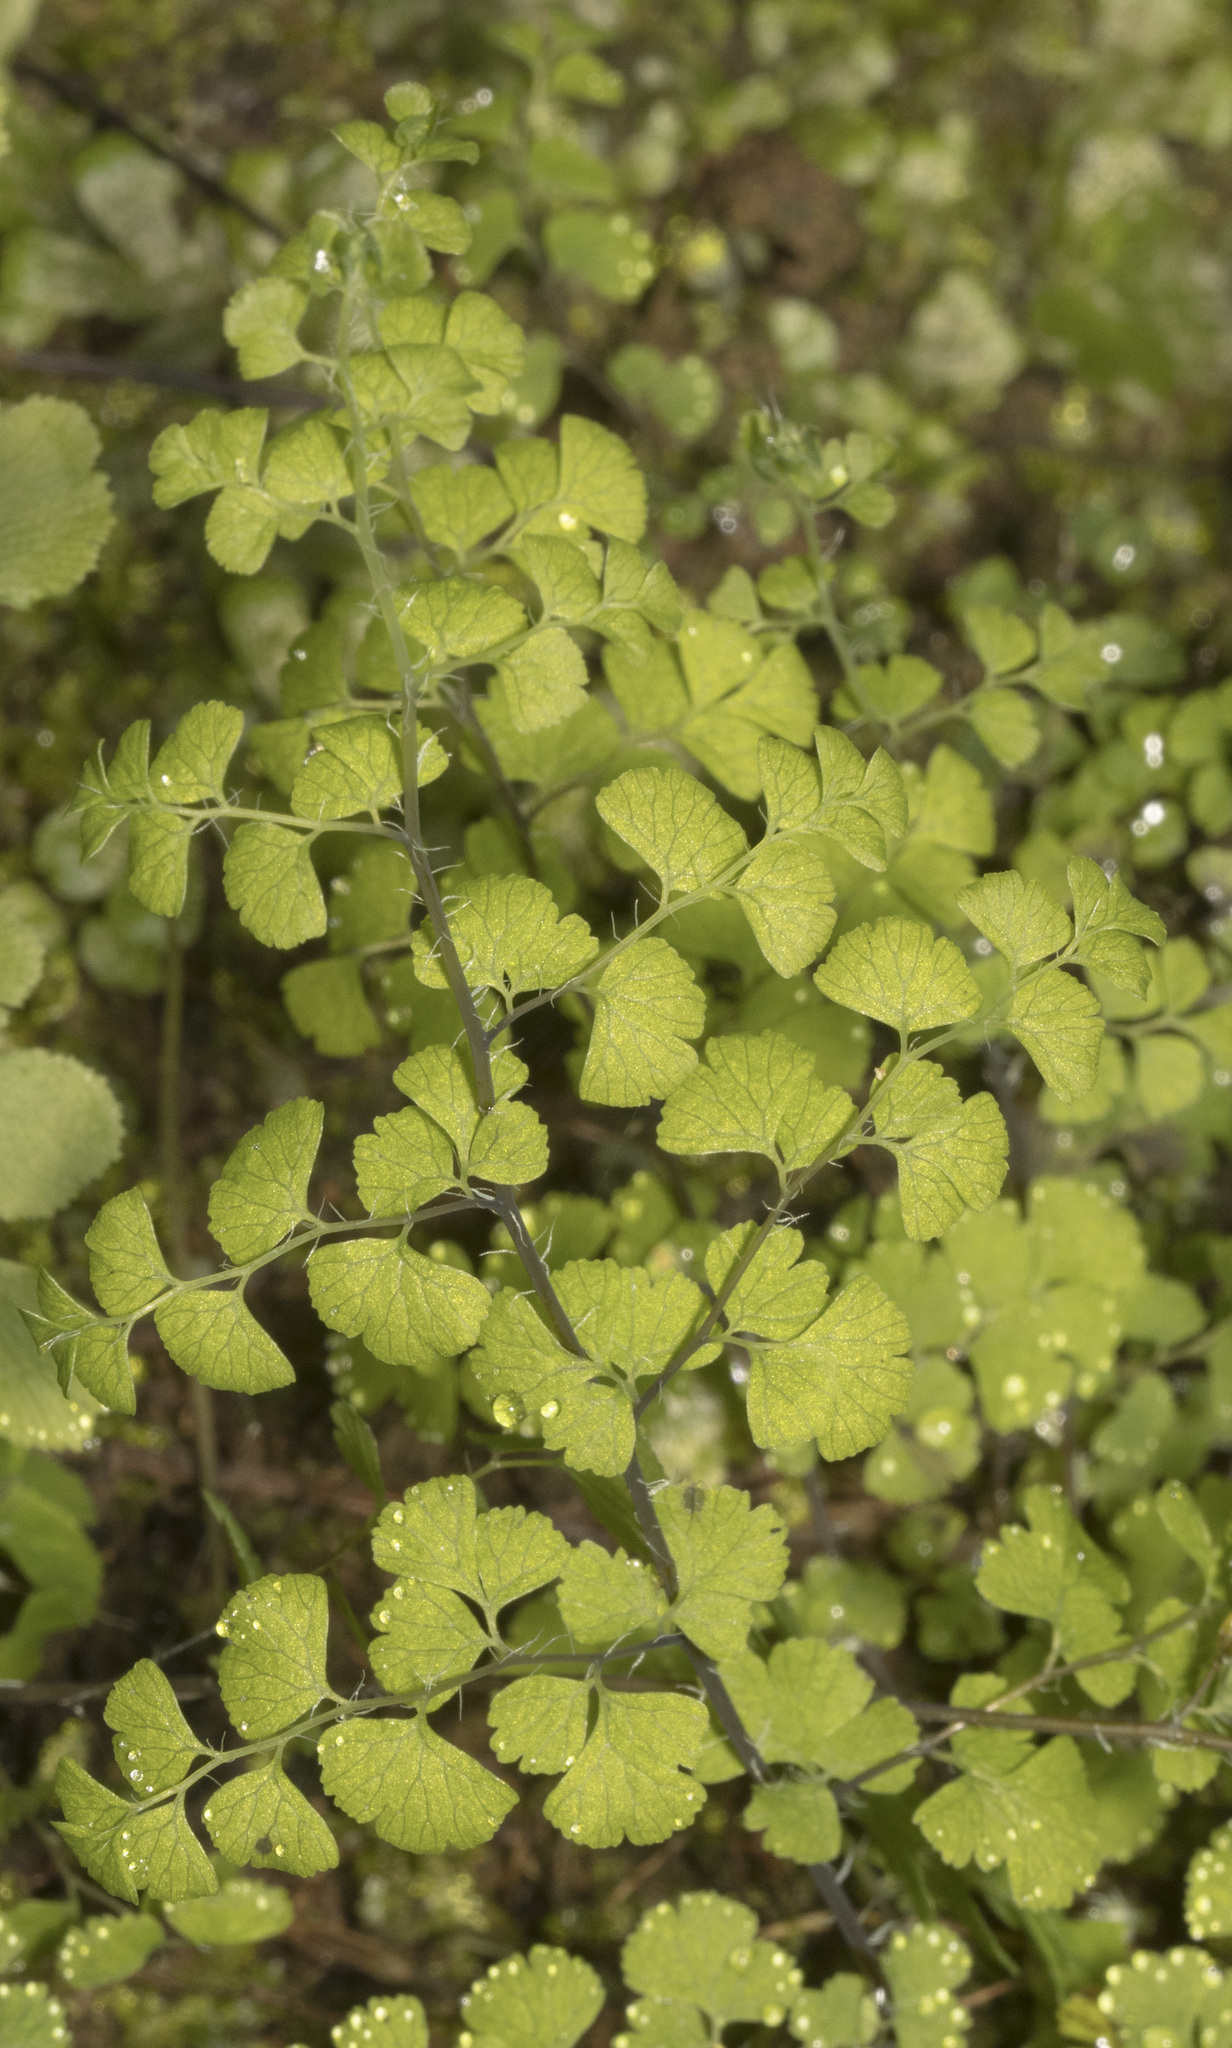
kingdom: Plantae
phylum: Tracheophyta
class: Polypodiopsida
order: Polypodiales
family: Pteridaceae
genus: Adiantum
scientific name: Adiantum excisum
